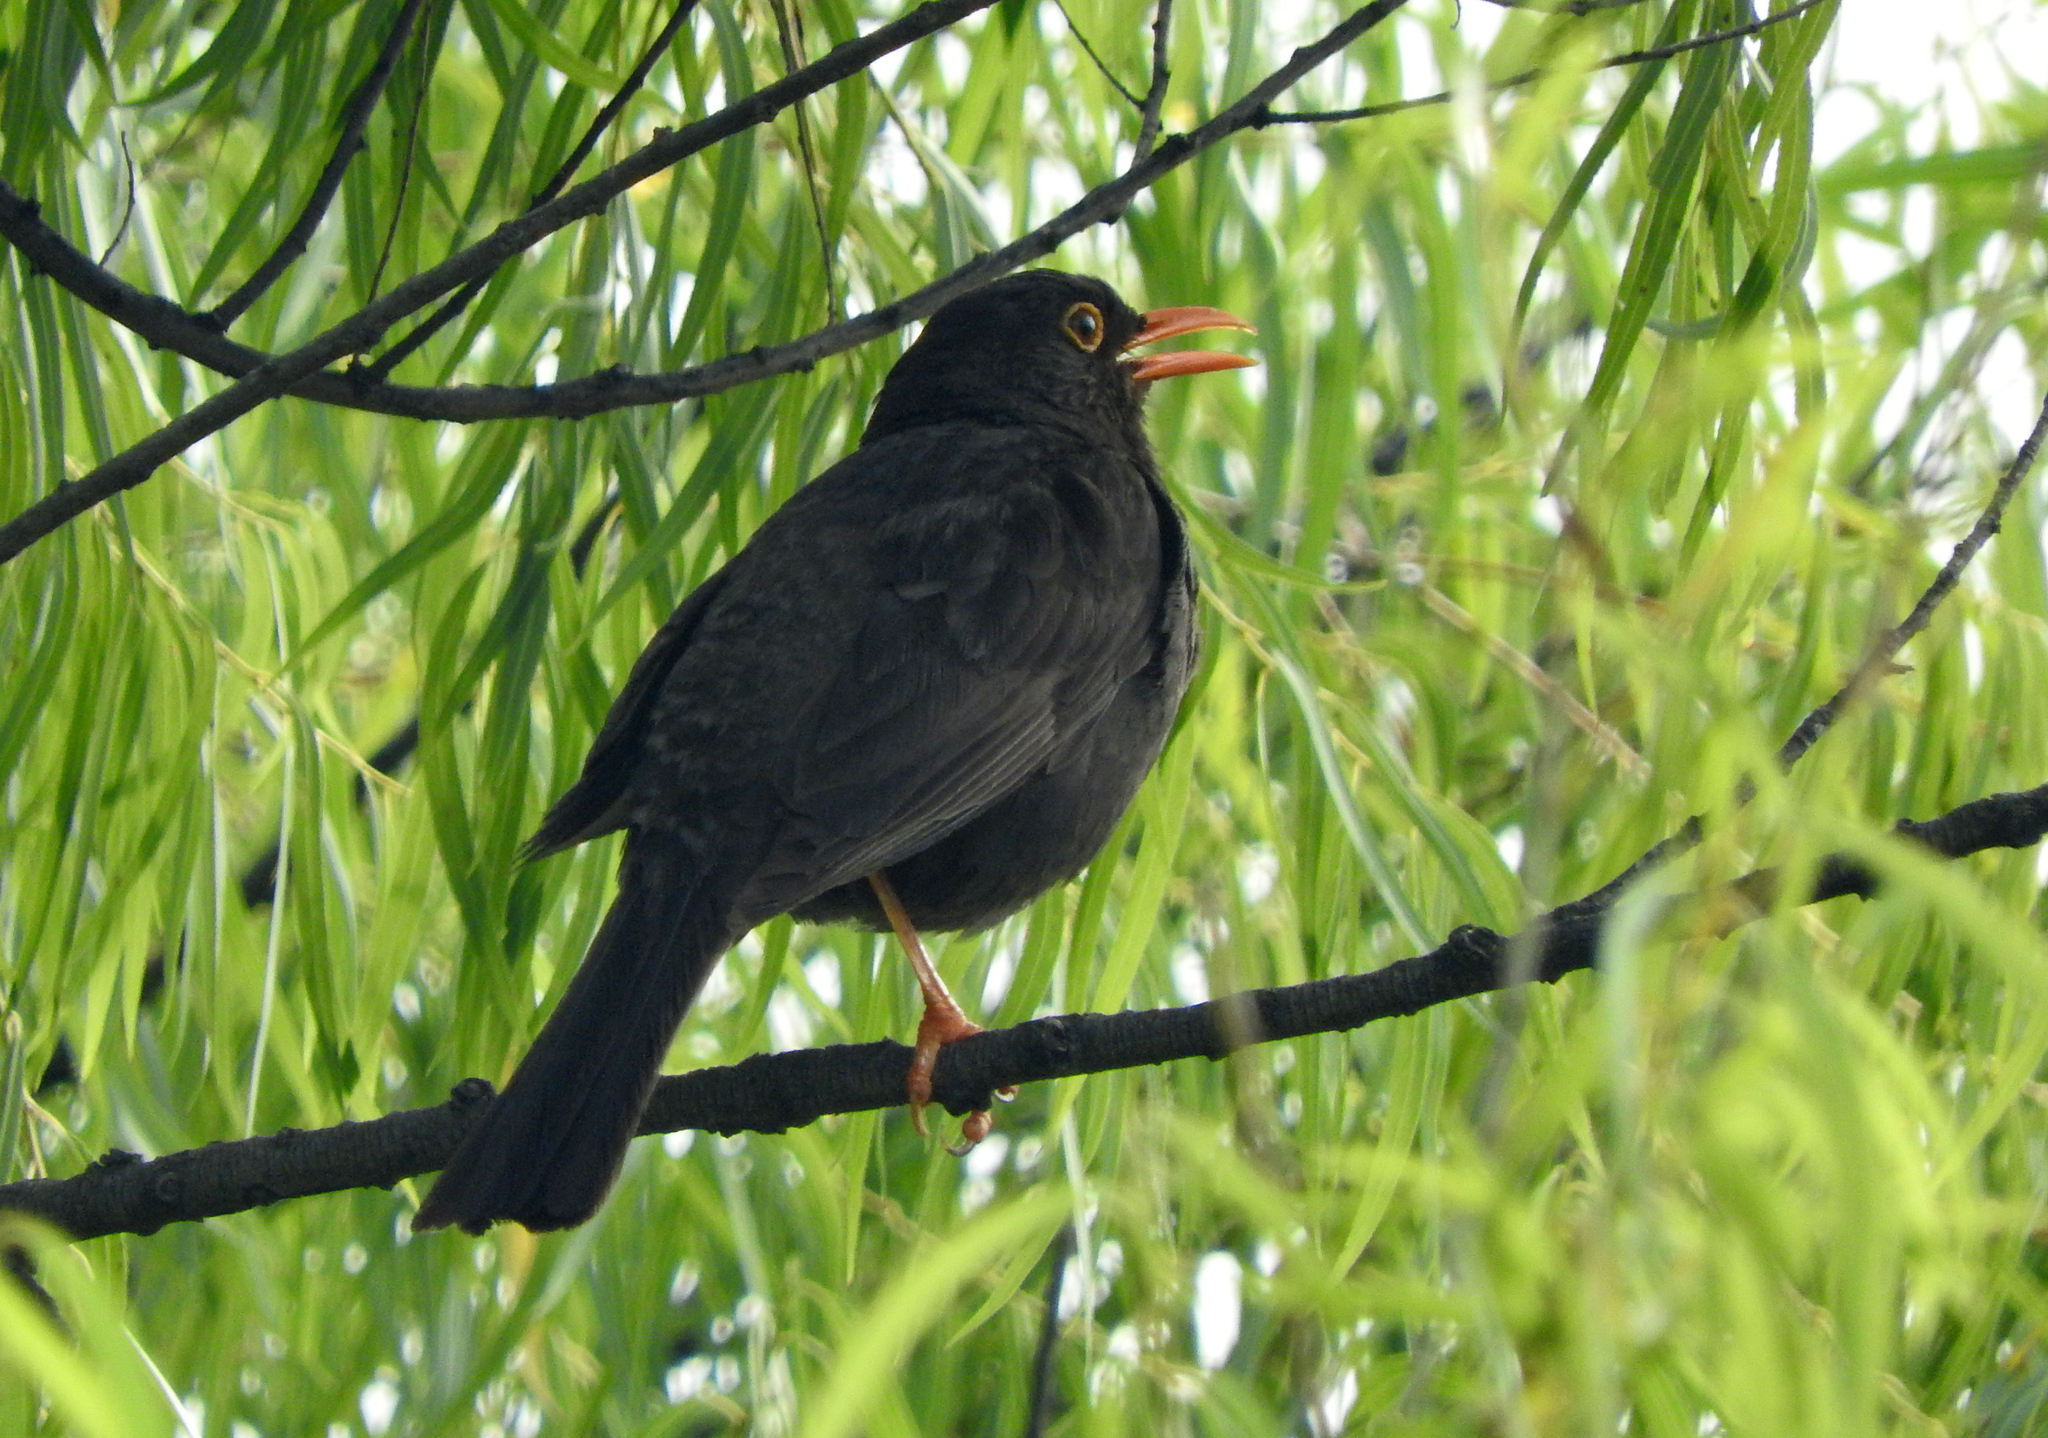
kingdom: Animalia
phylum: Chordata
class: Aves
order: Passeriformes
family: Turdidae
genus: Turdus
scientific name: Turdus chiguanco
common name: Chiguanco thrush
